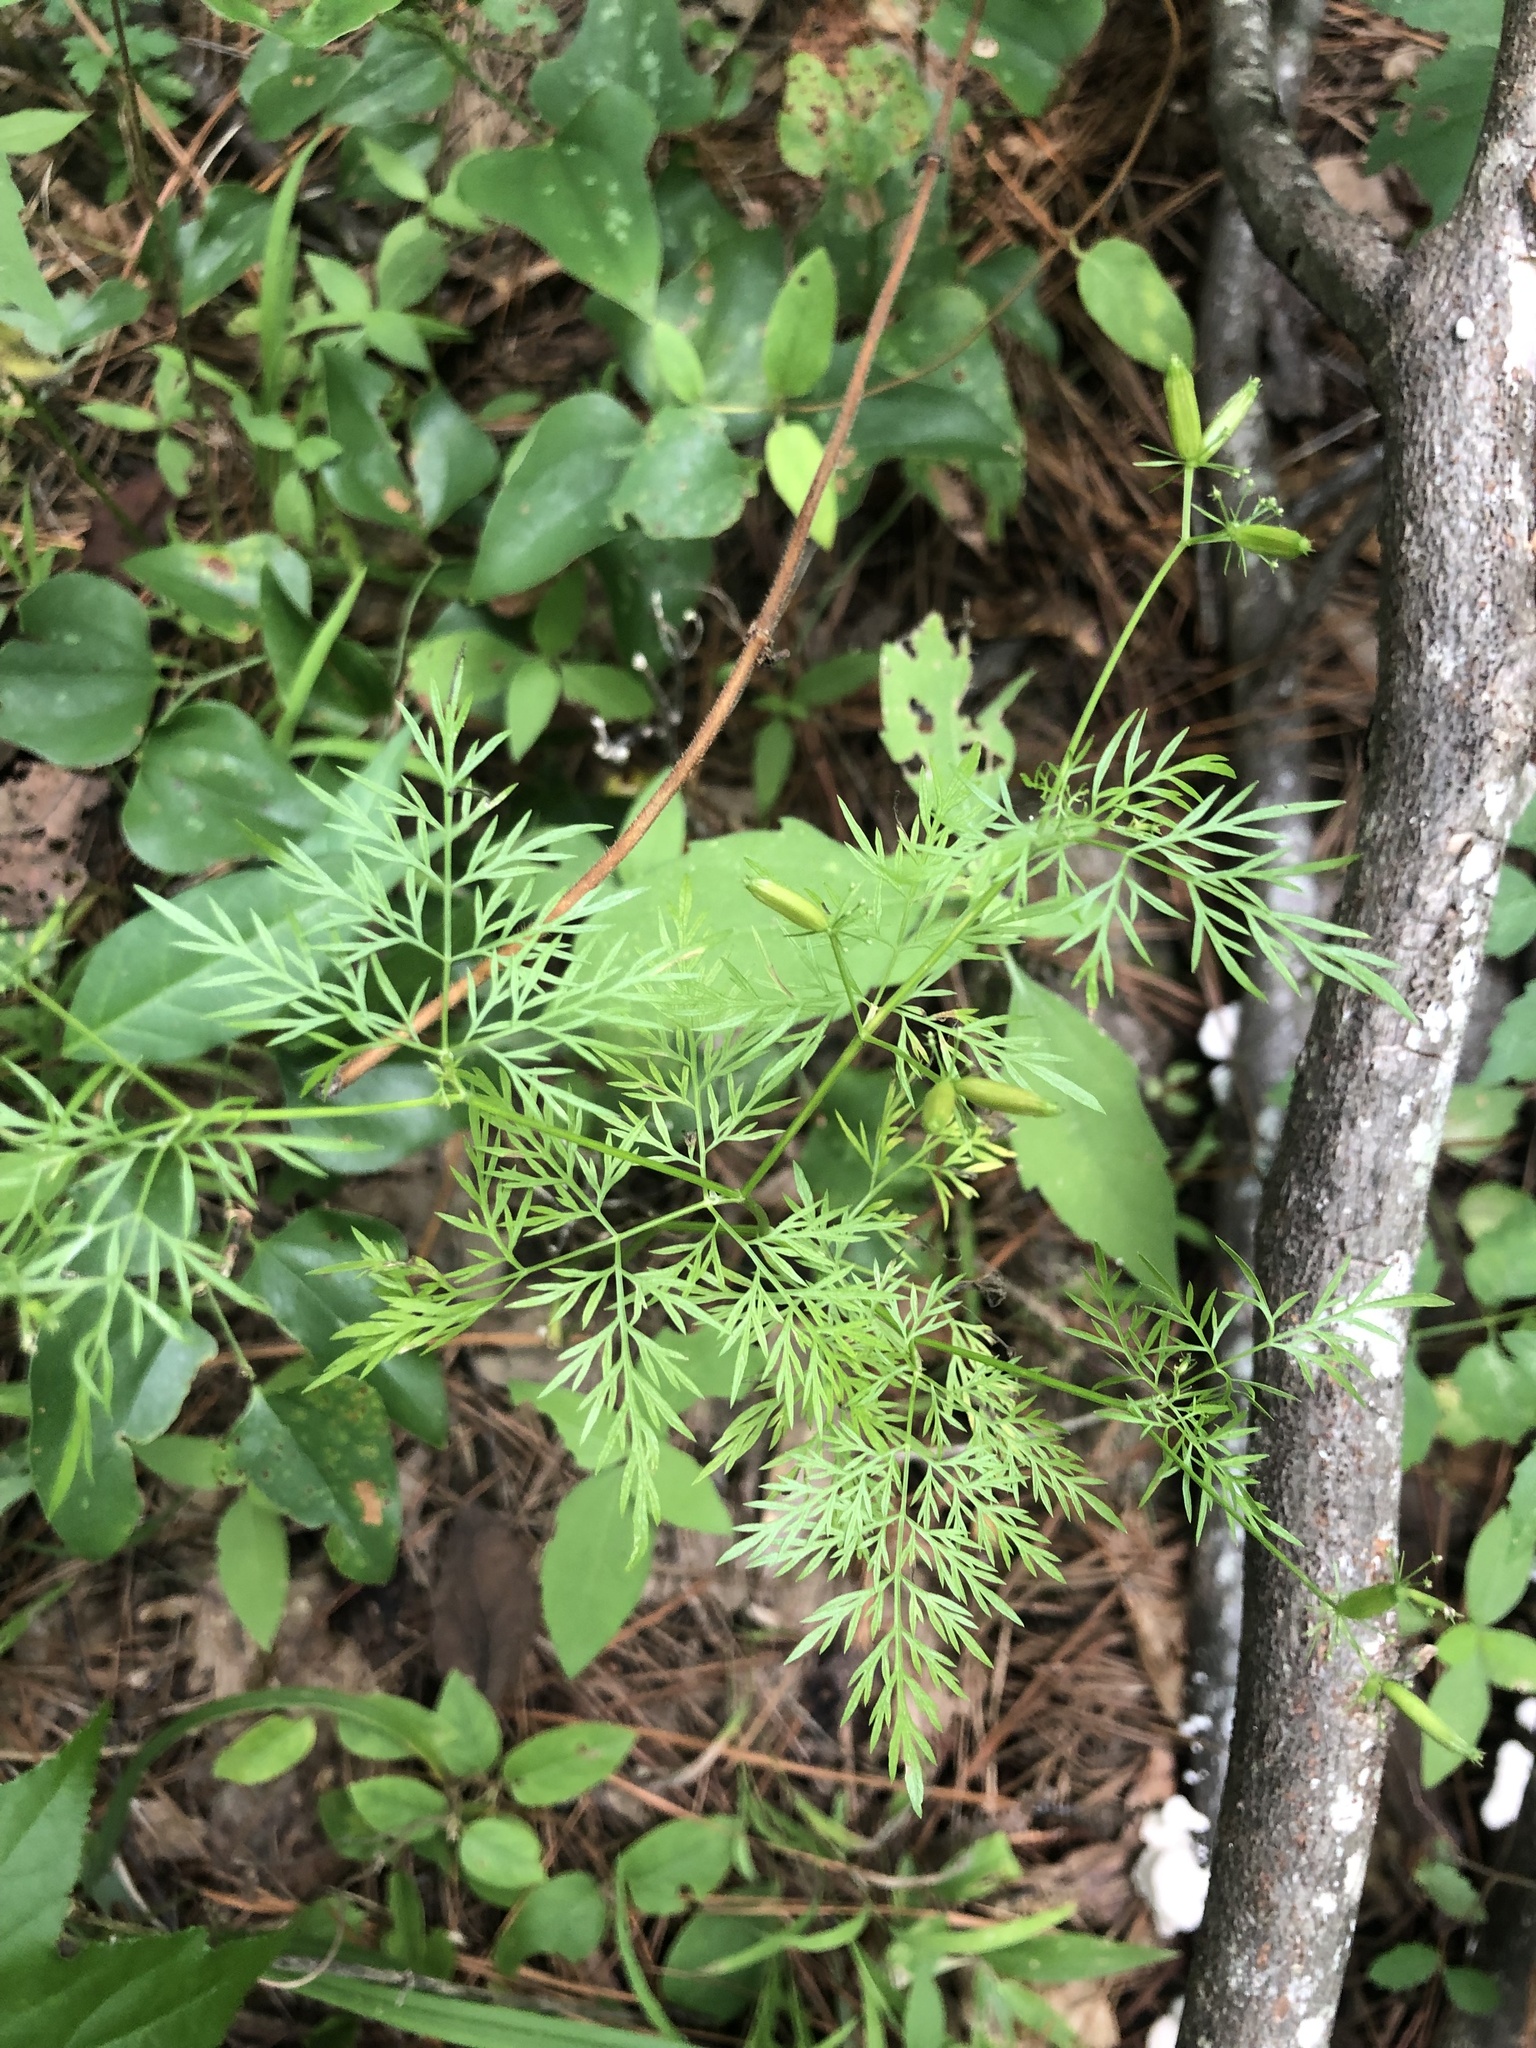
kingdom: Plantae
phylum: Tracheophyta
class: Magnoliopsida
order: Apiales
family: Apiaceae
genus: Trepocarpus
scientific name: Trepocarpus aethusae
